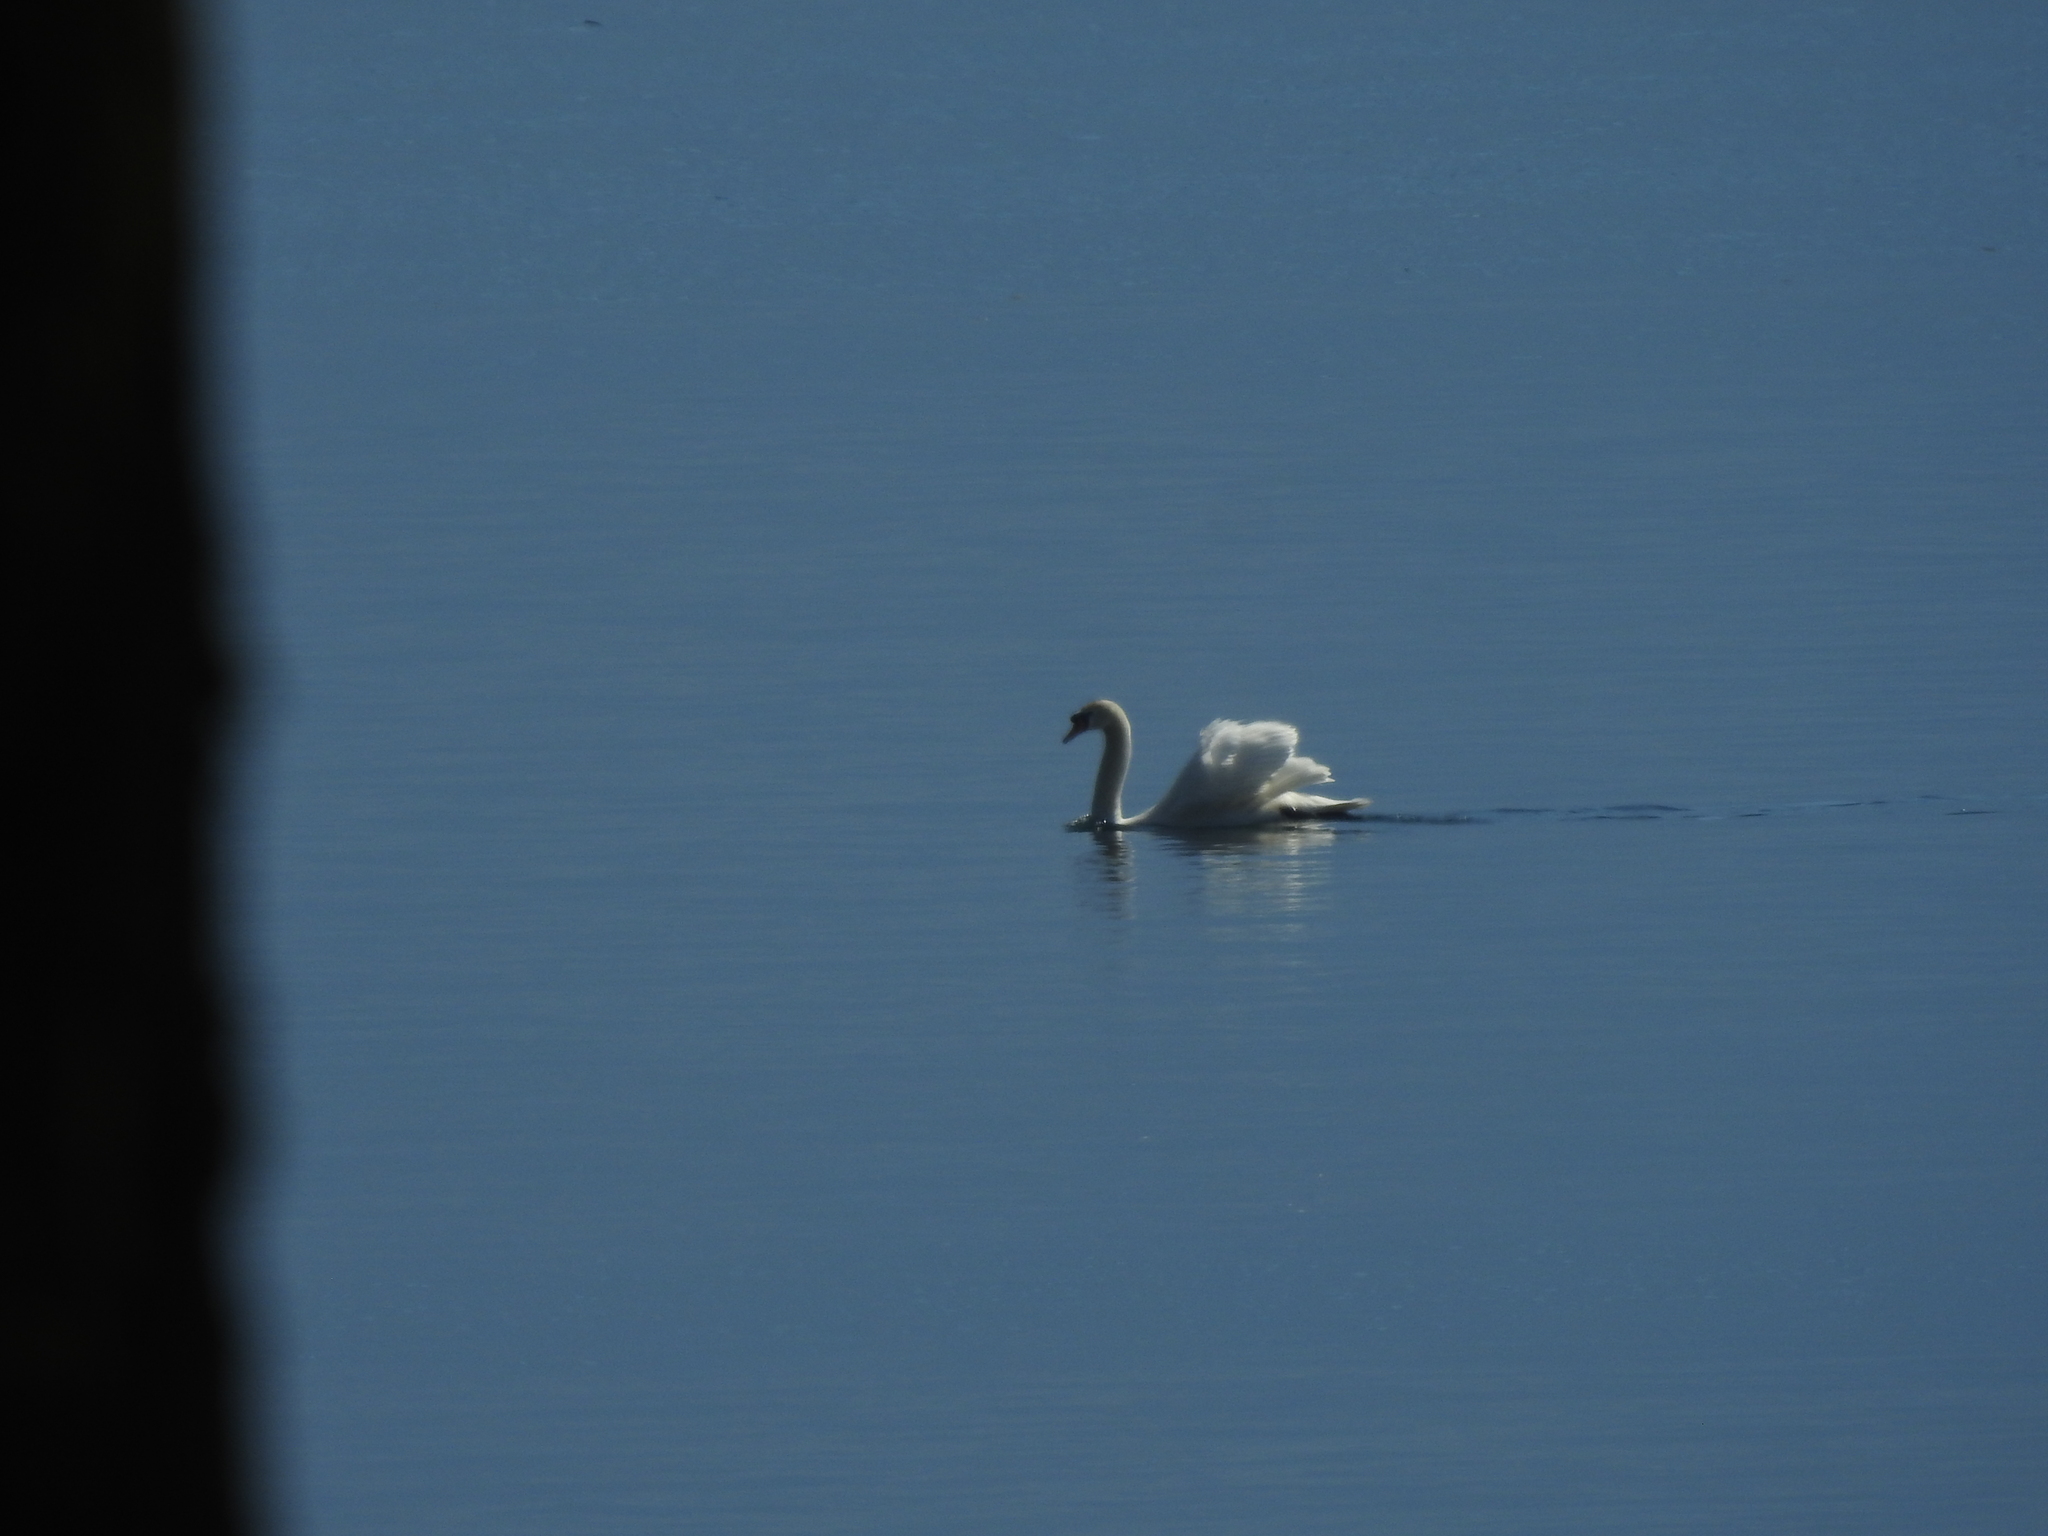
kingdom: Animalia
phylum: Chordata
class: Aves
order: Anseriformes
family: Anatidae
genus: Cygnus
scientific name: Cygnus olor
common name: Mute swan
